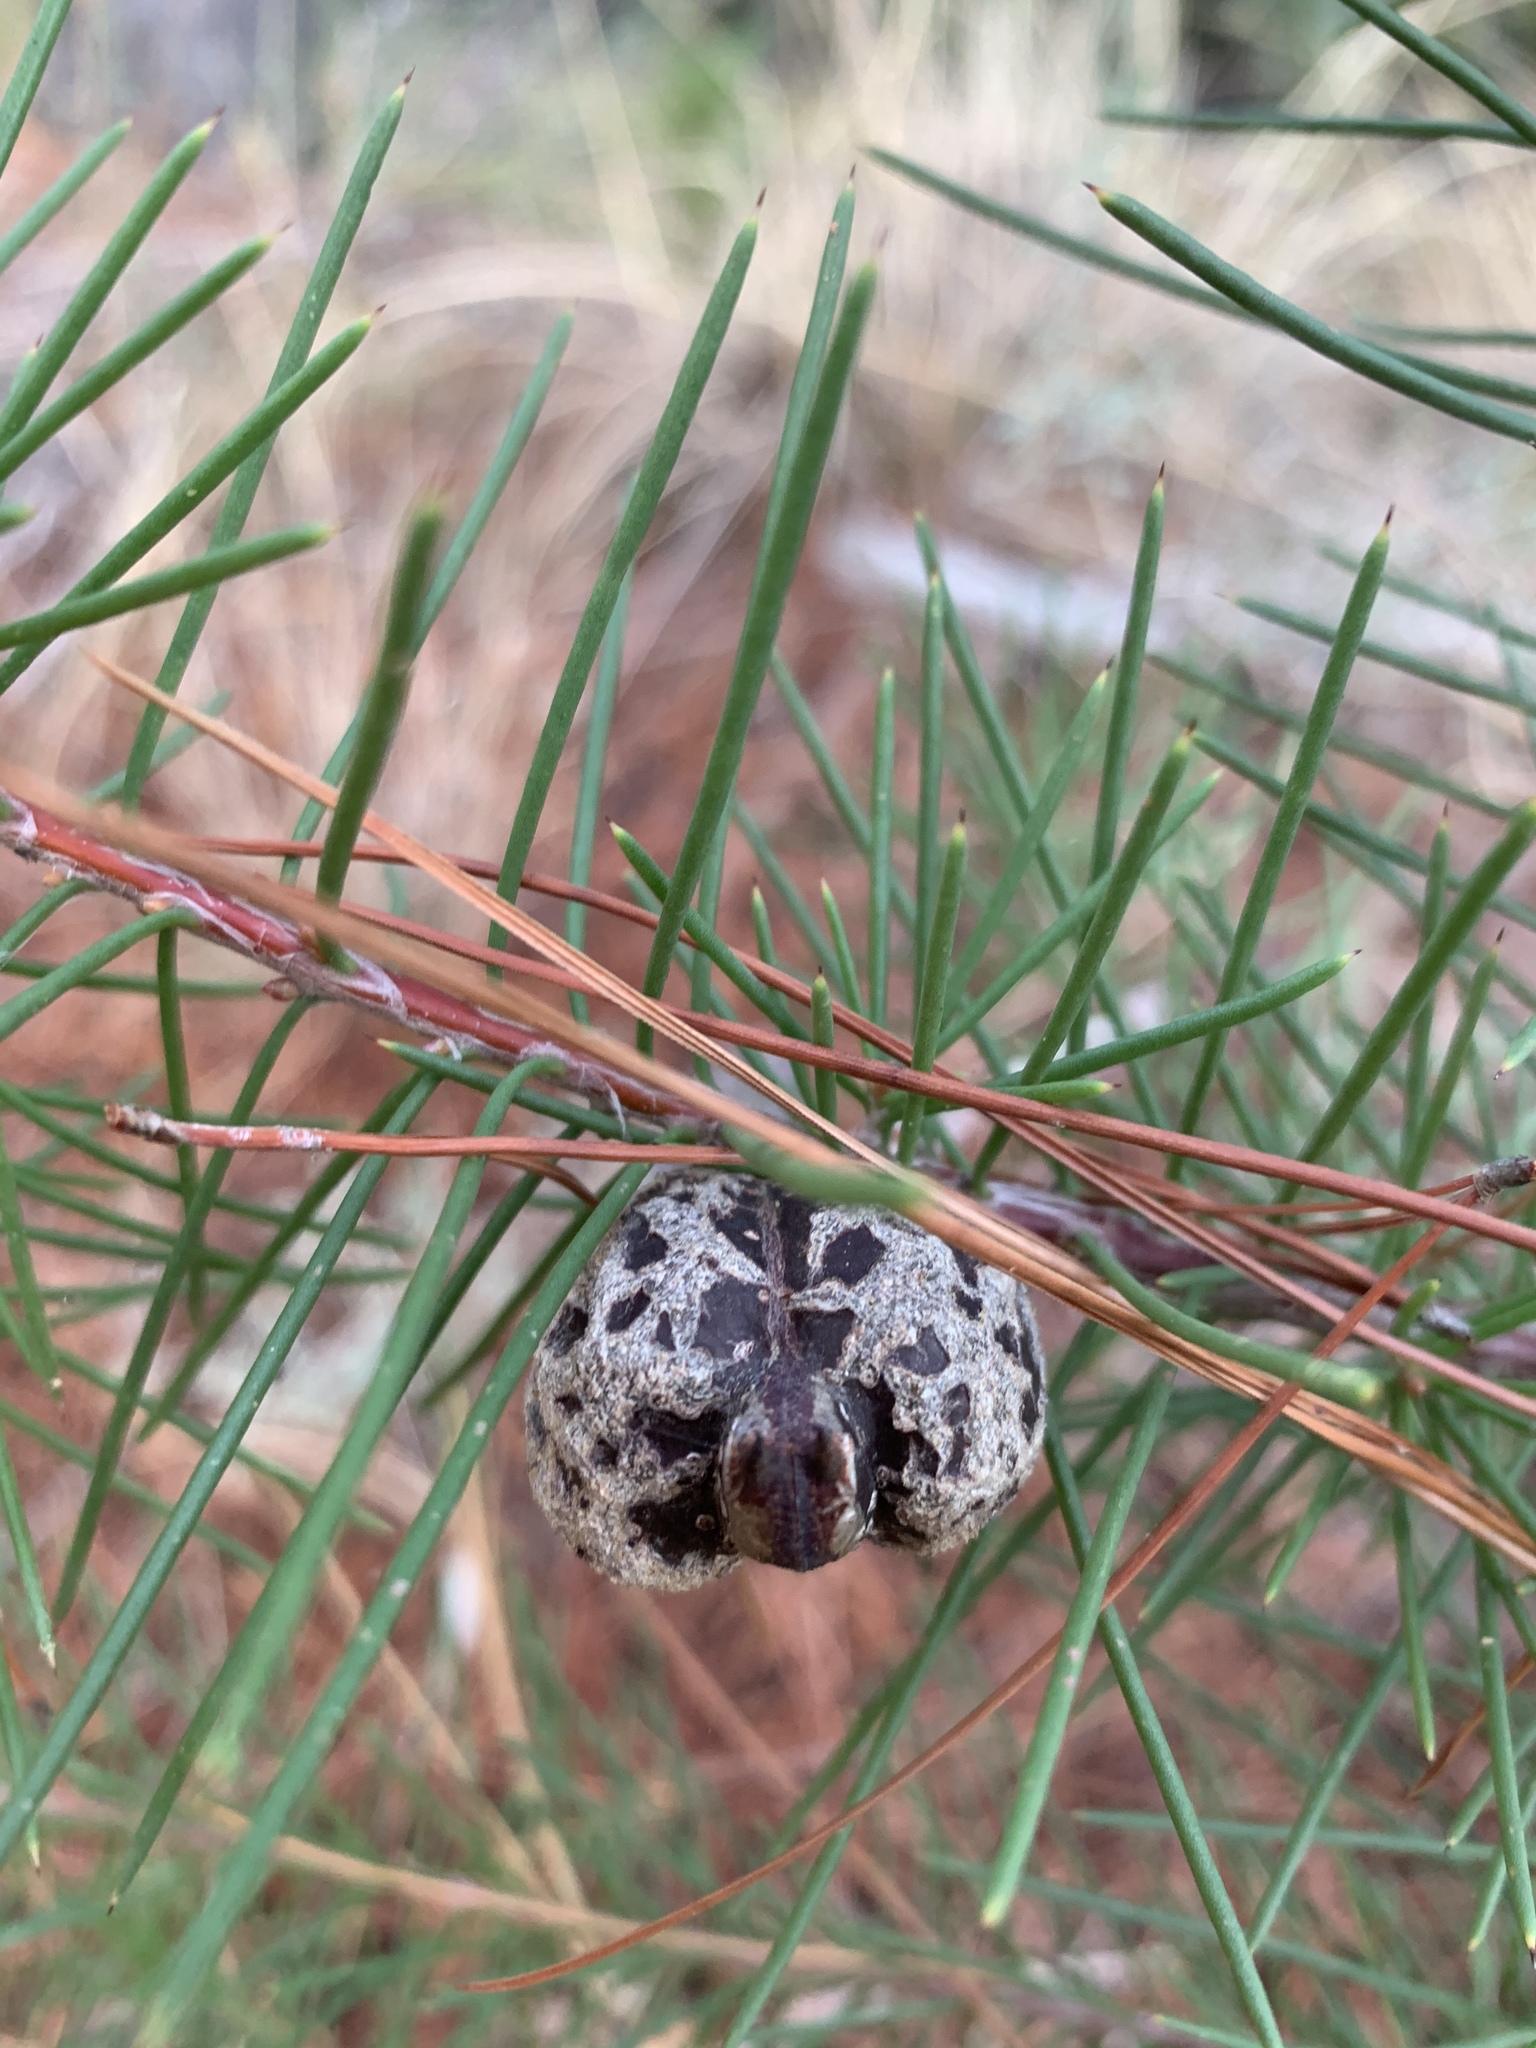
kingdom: Plantae
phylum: Tracheophyta
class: Magnoliopsida
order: Proteales
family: Proteaceae
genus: Hakea
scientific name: Hakea sericea
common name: Needle bush
